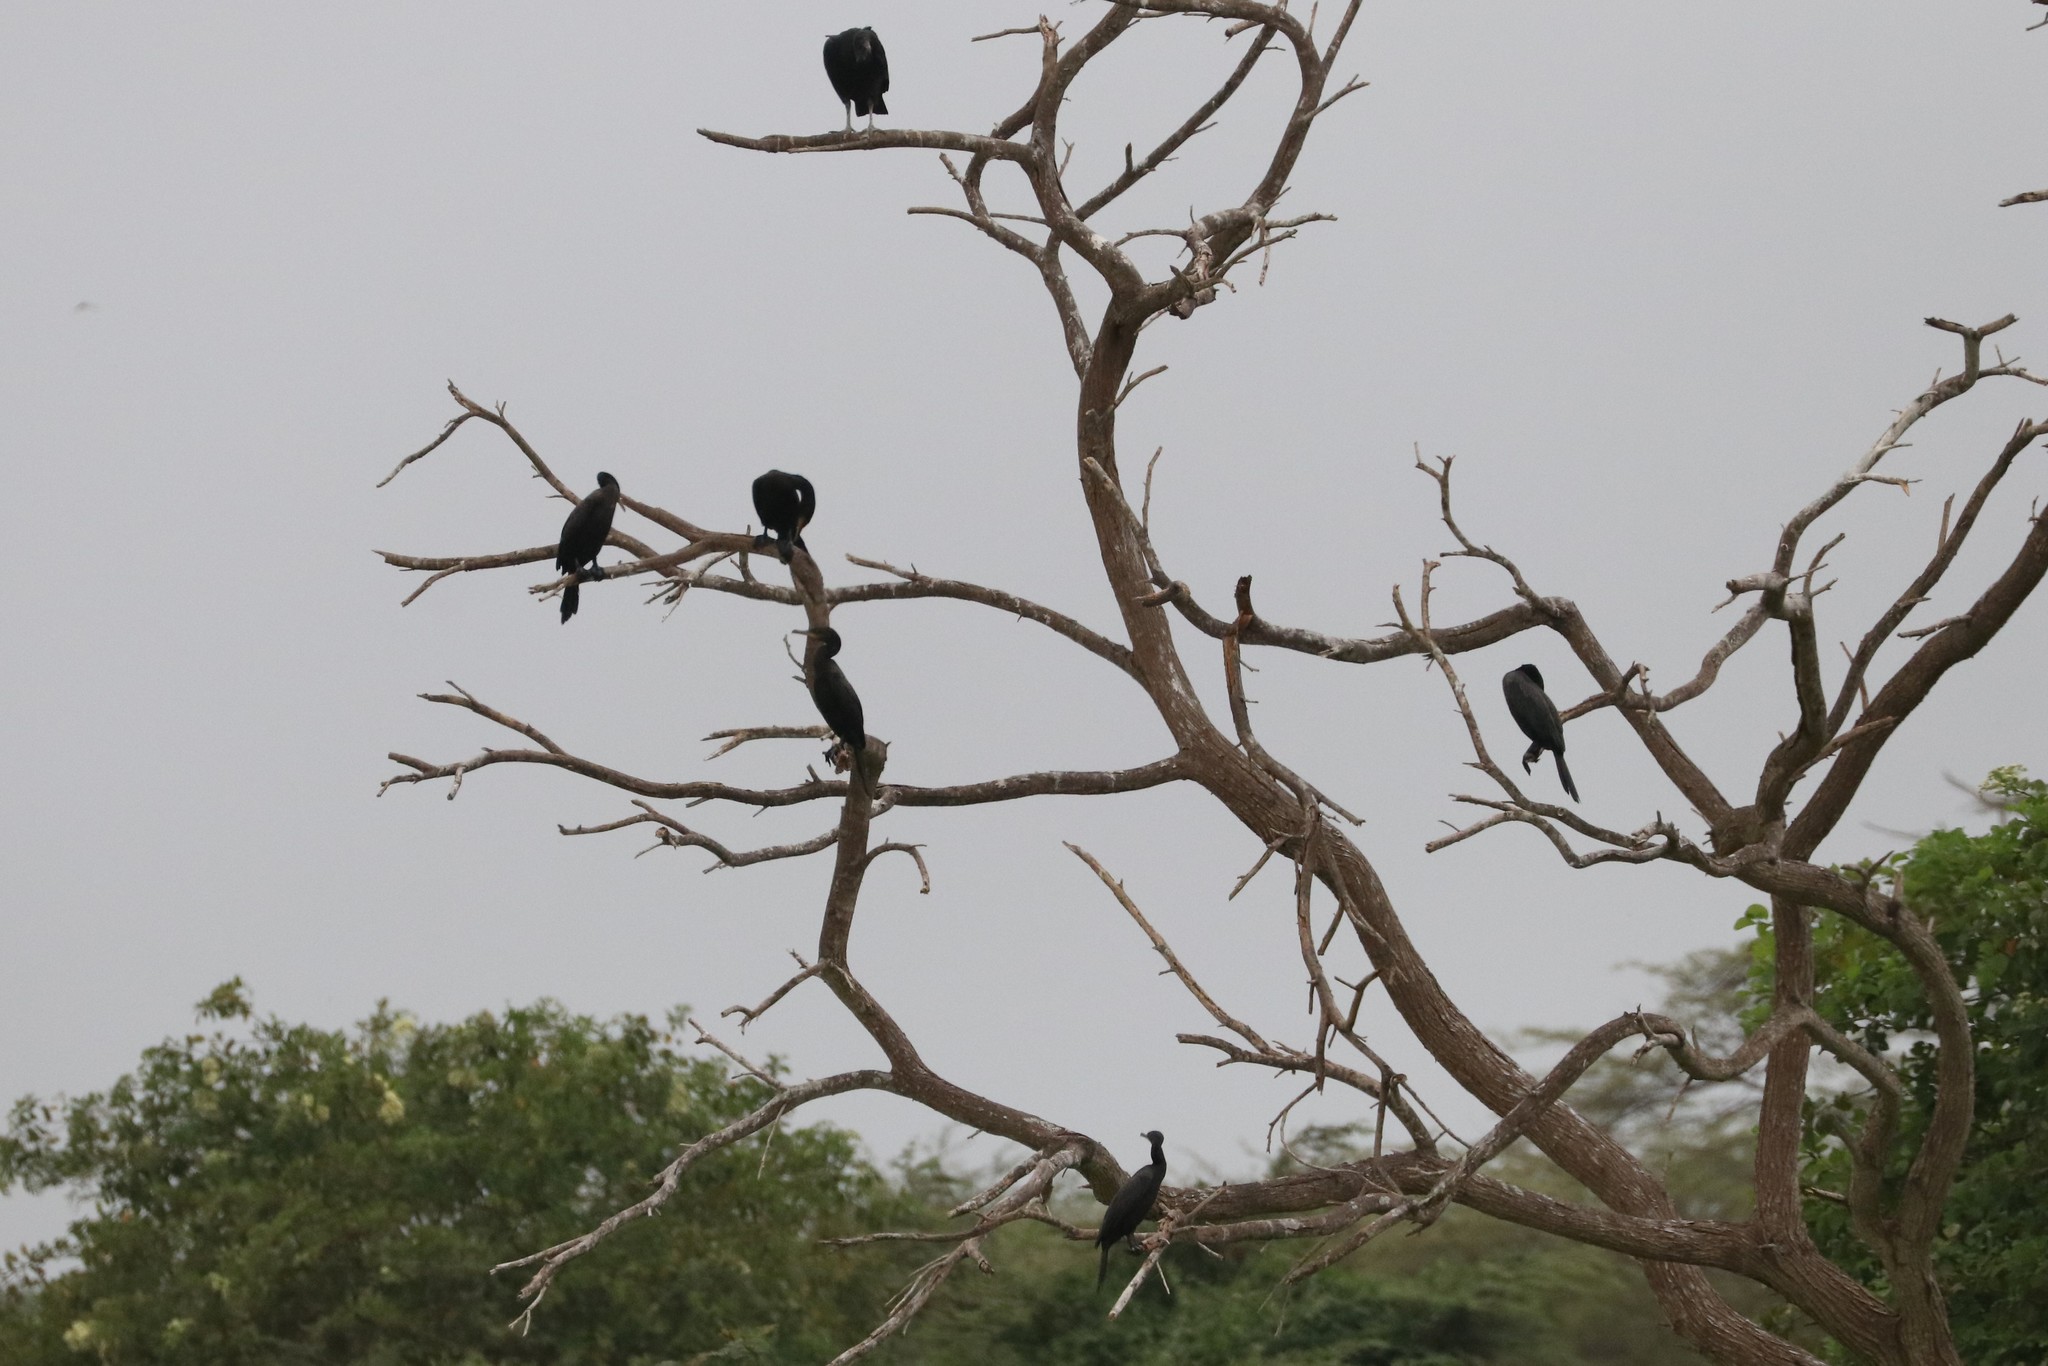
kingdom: Animalia
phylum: Chordata
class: Aves
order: Suliformes
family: Phalacrocoracidae
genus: Phalacrocorax
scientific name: Phalacrocorax brasilianus
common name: Neotropic cormorant
